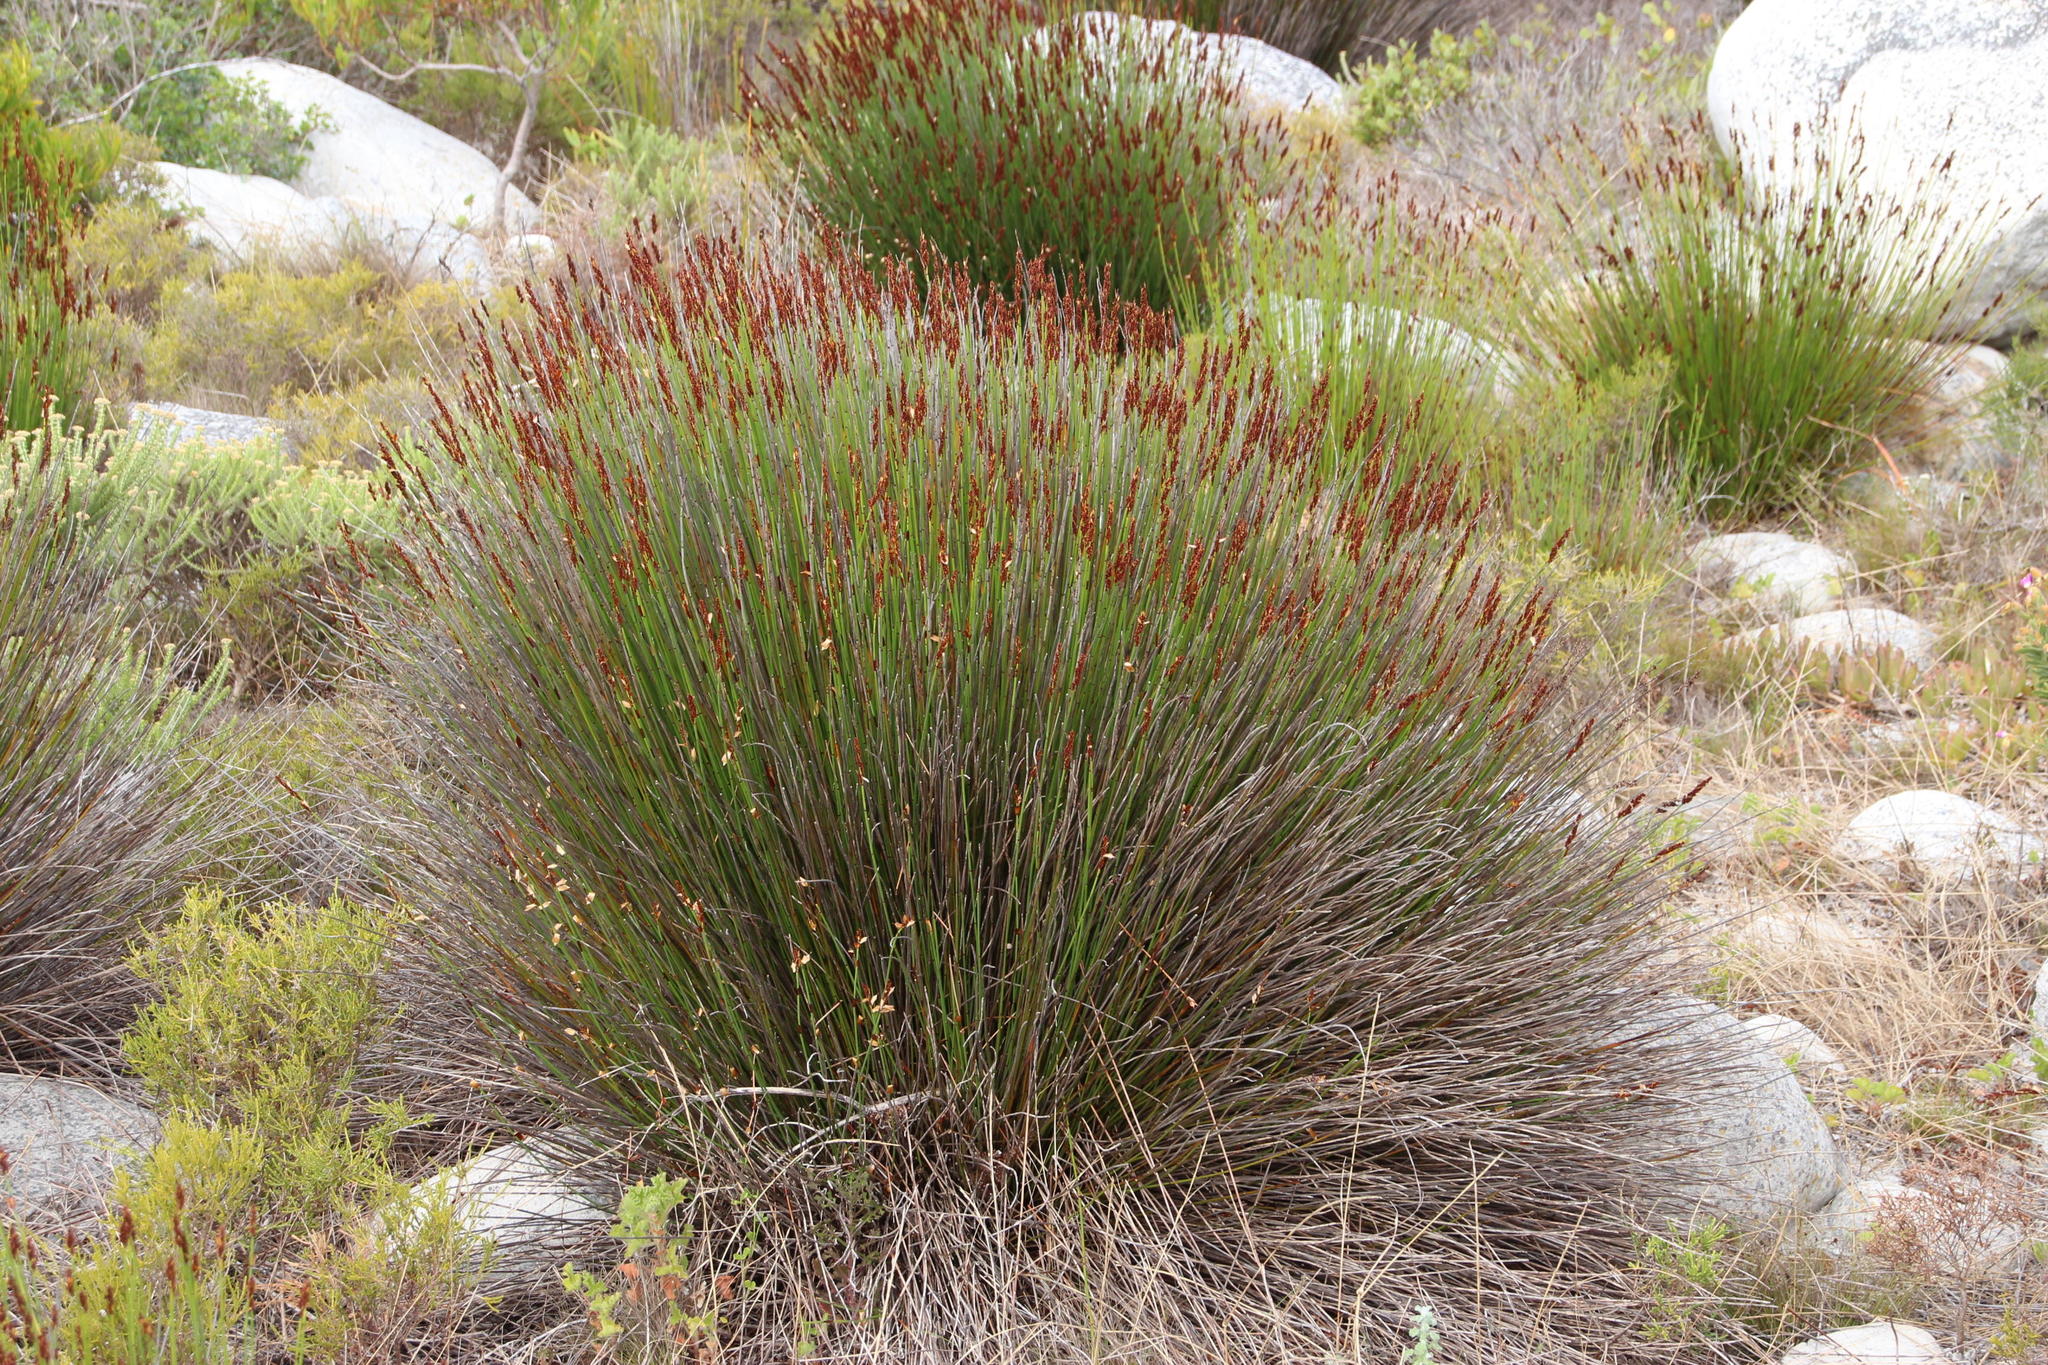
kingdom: Plantae
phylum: Tracheophyta
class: Liliopsida
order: Poales
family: Restionaceae
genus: Elegia
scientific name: Elegia nuda
